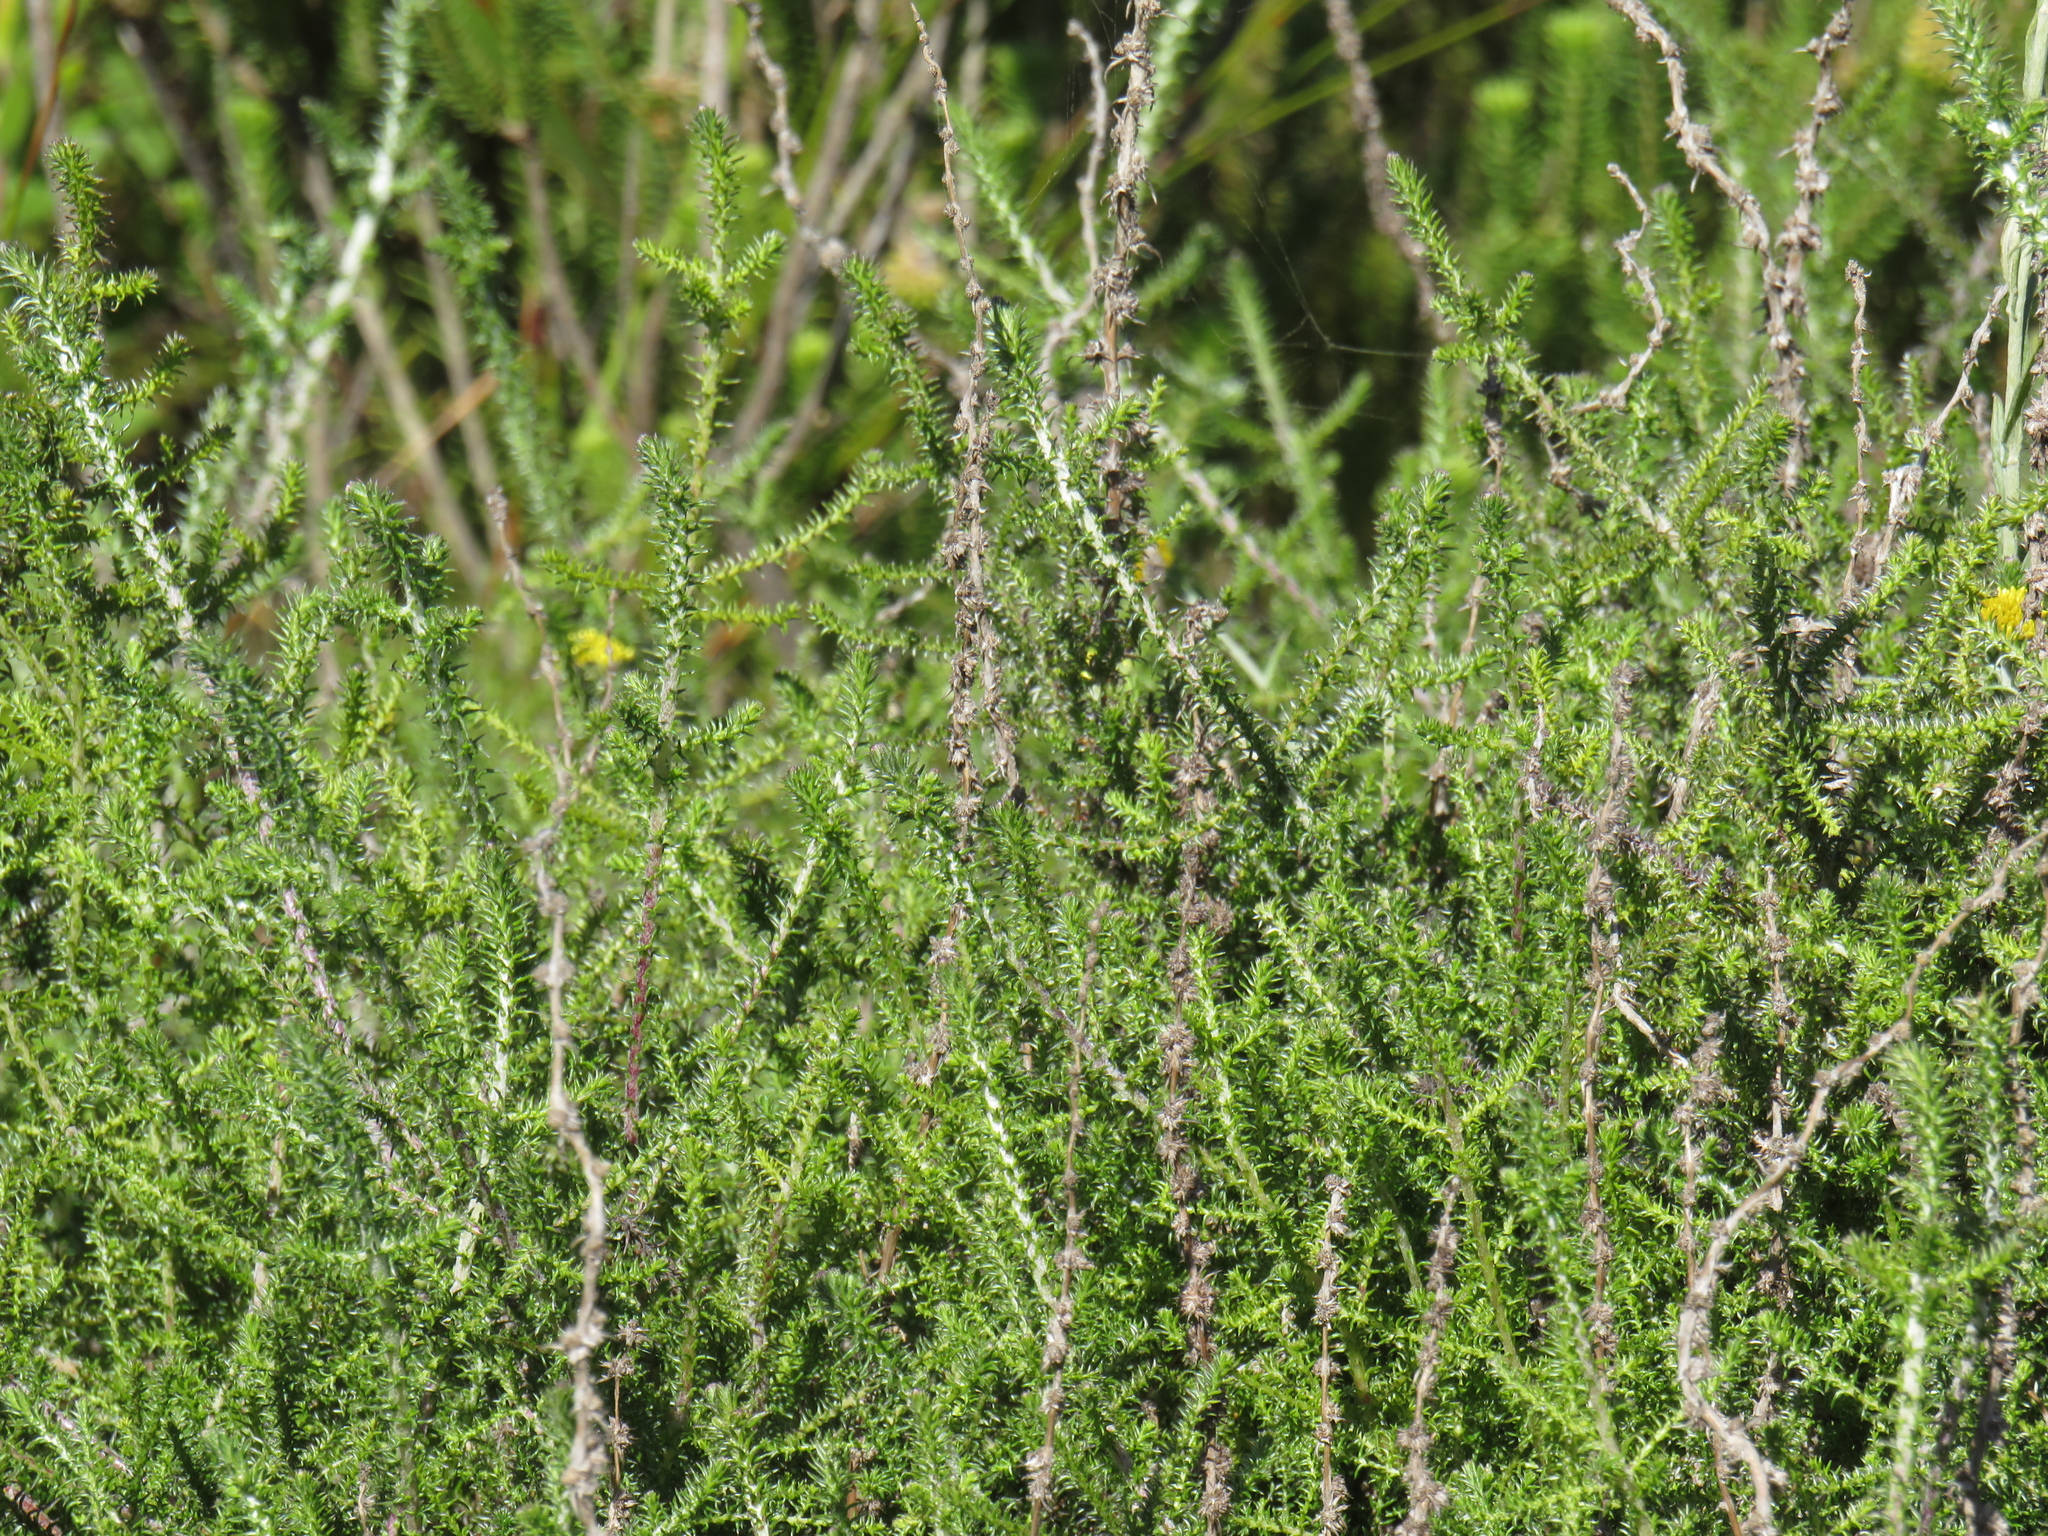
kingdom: Plantae
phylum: Tracheophyta
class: Magnoliopsida
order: Asterales
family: Asteraceae
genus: Seriphium
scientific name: Seriphium cinereum
